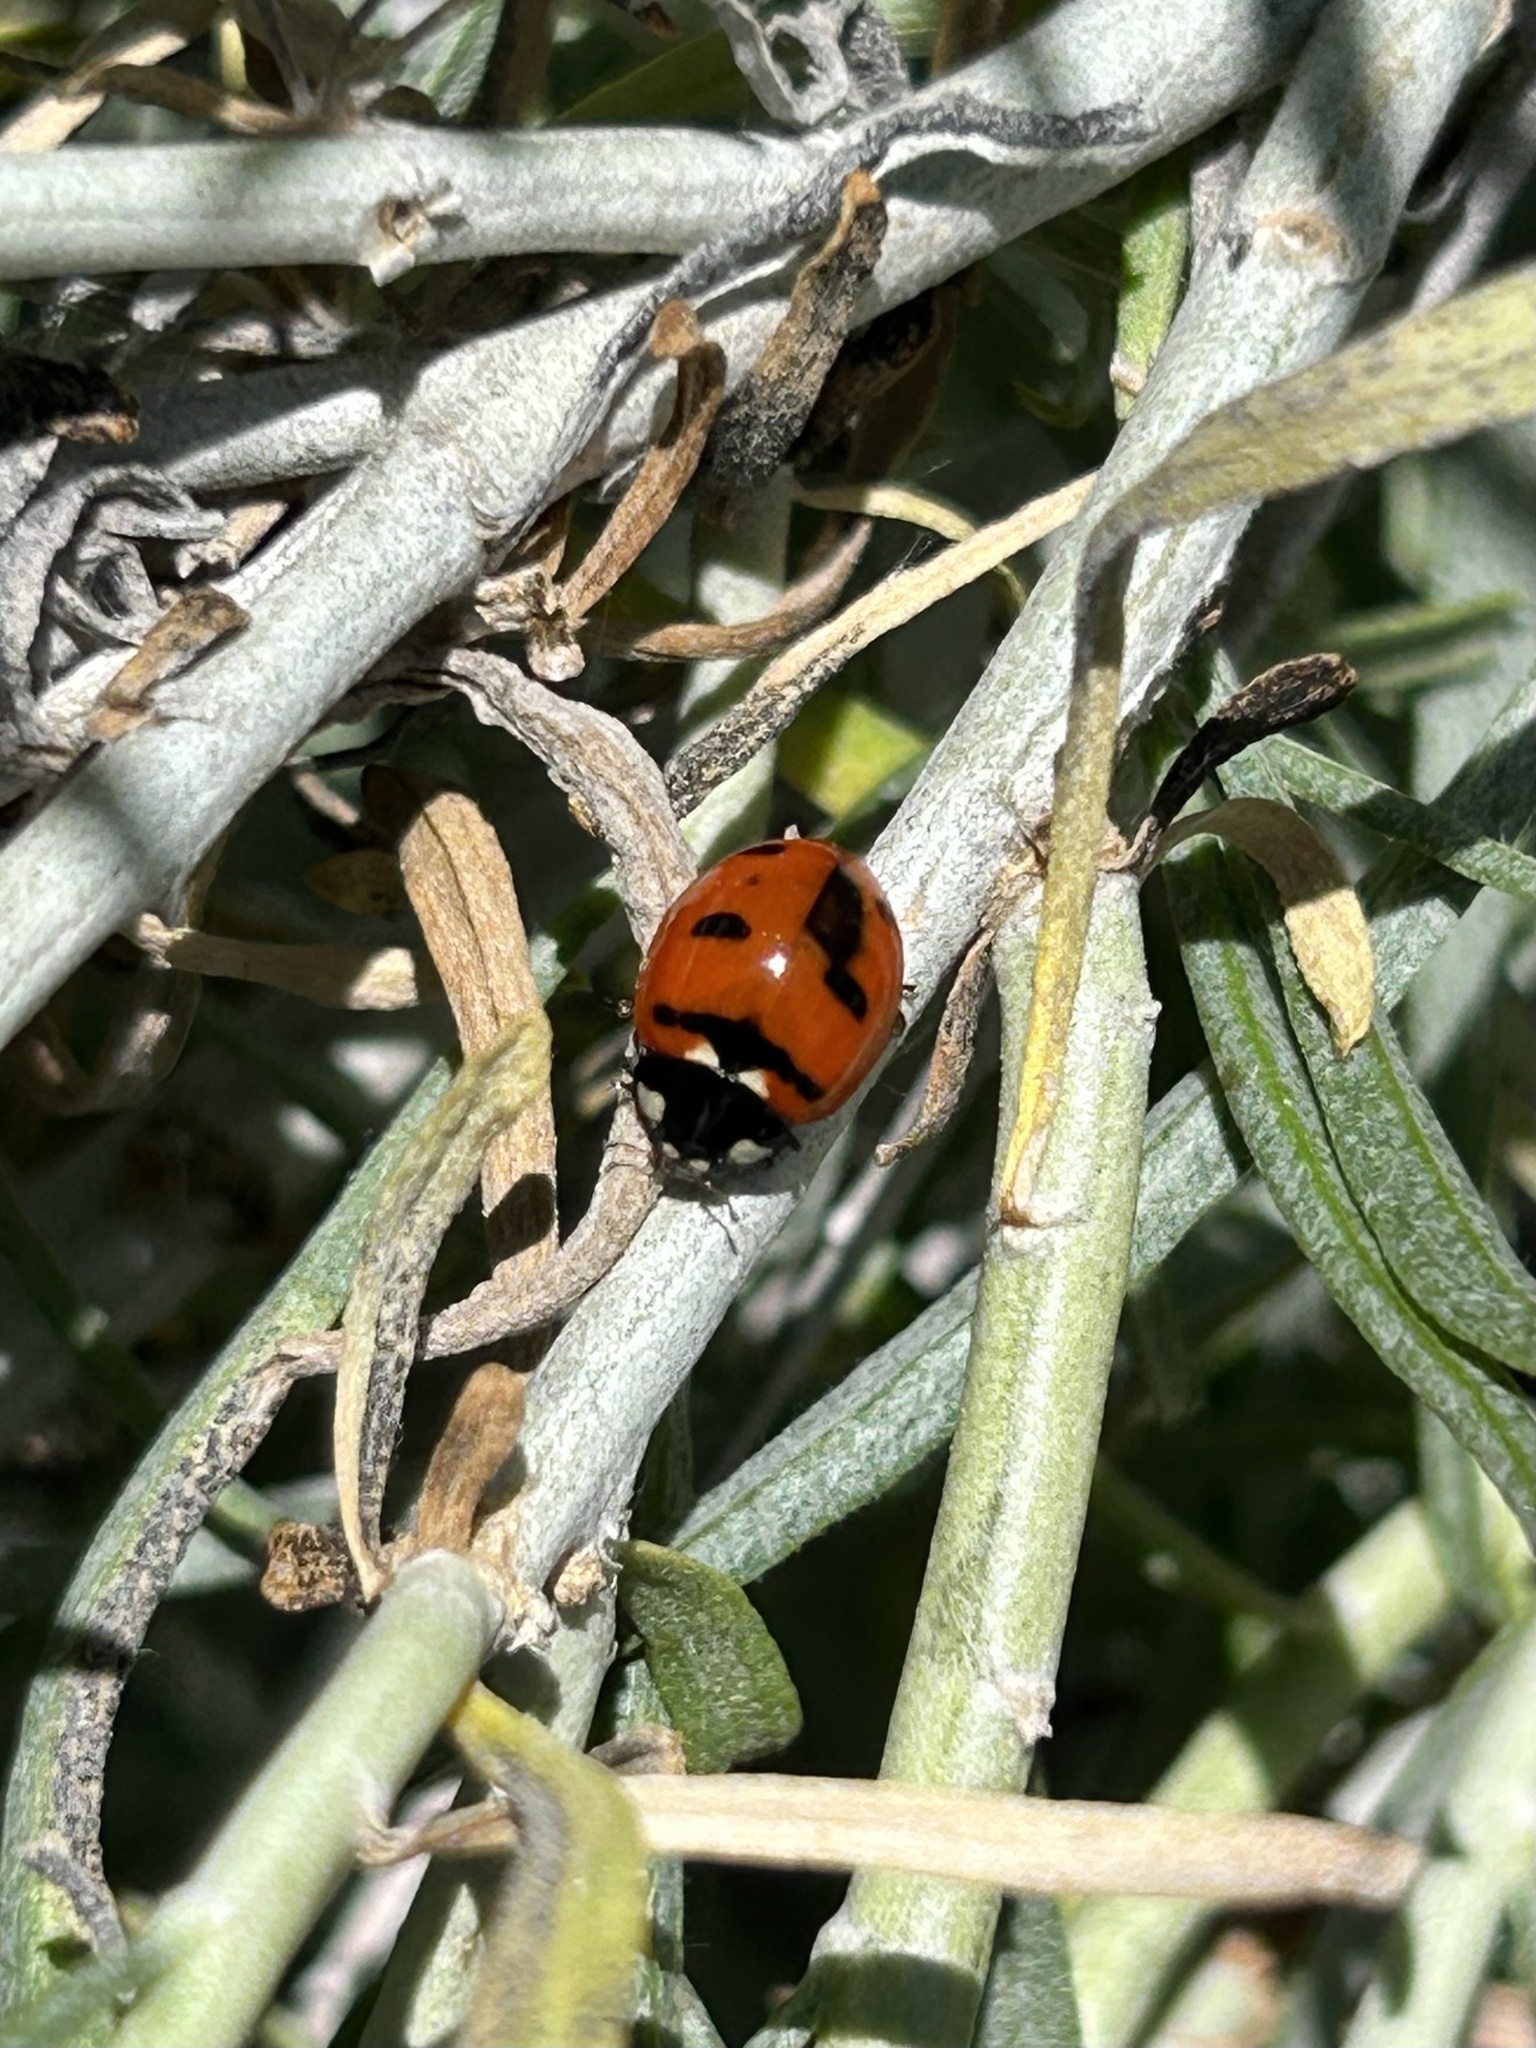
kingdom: Animalia
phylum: Arthropoda
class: Insecta
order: Coleoptera
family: Coccinellidae
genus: Coccinella
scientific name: Coccinella transversoguttata
